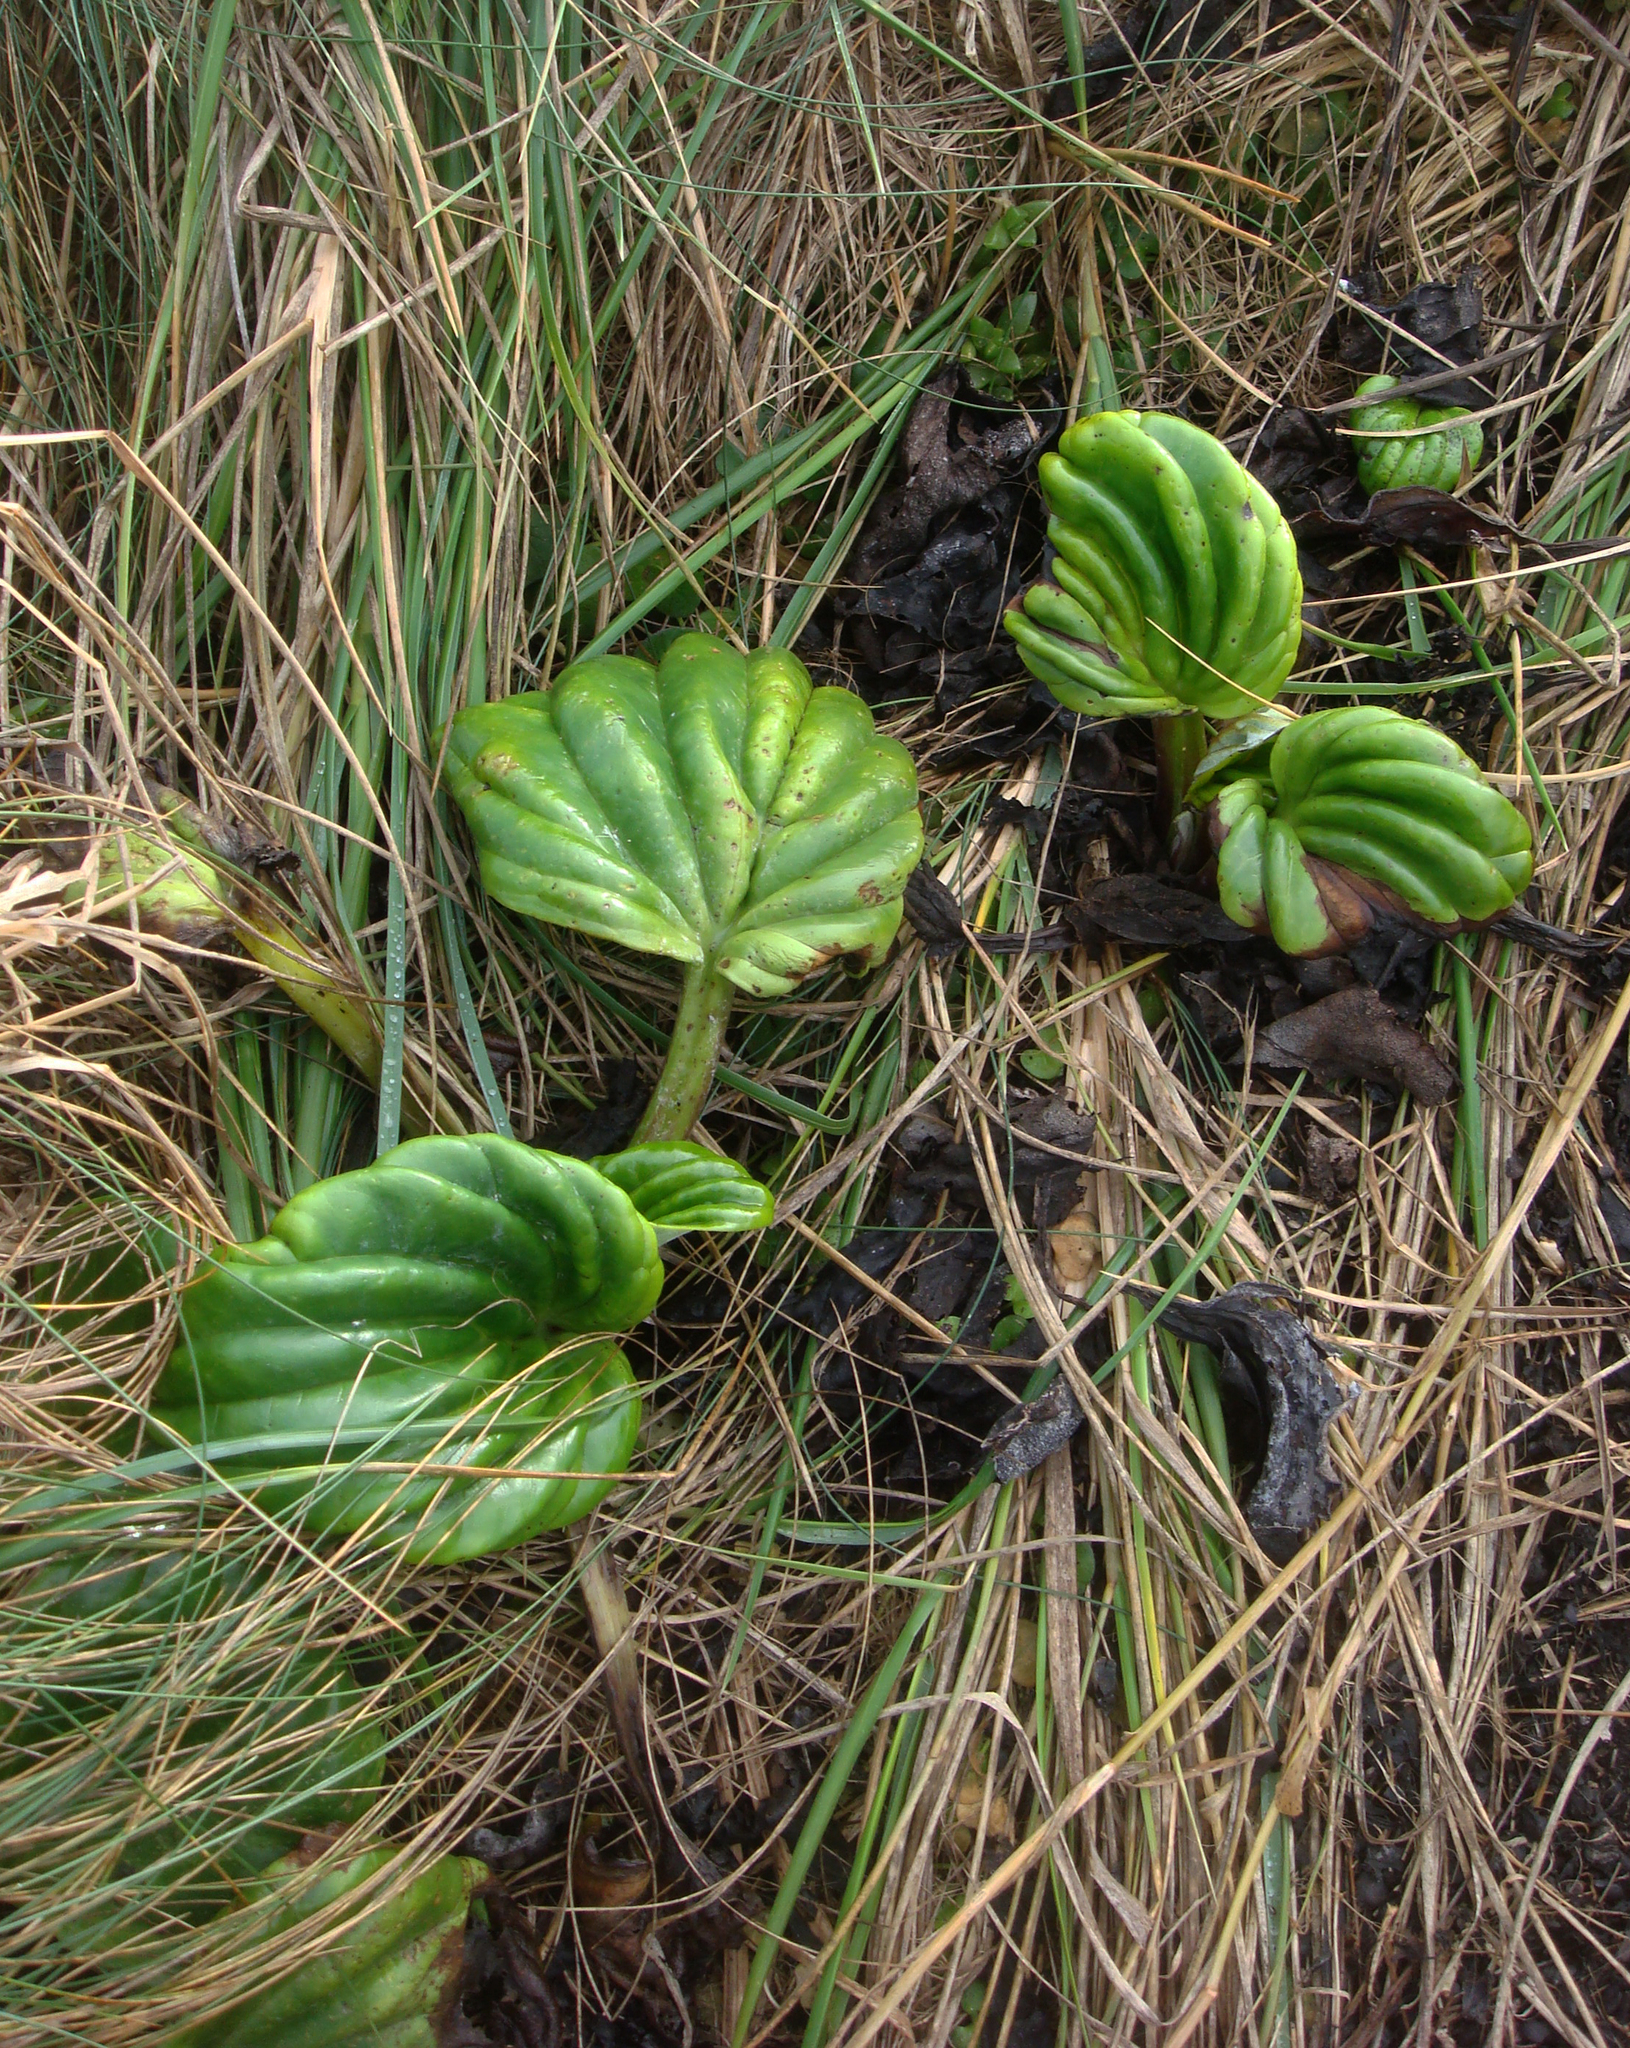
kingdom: Plantae
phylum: Tracheophyta
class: Magnoliopsida
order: Boraginales
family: Boraginaceae
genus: Myosotidium
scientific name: Myosotidium hortensia
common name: Giant forget-me-not
